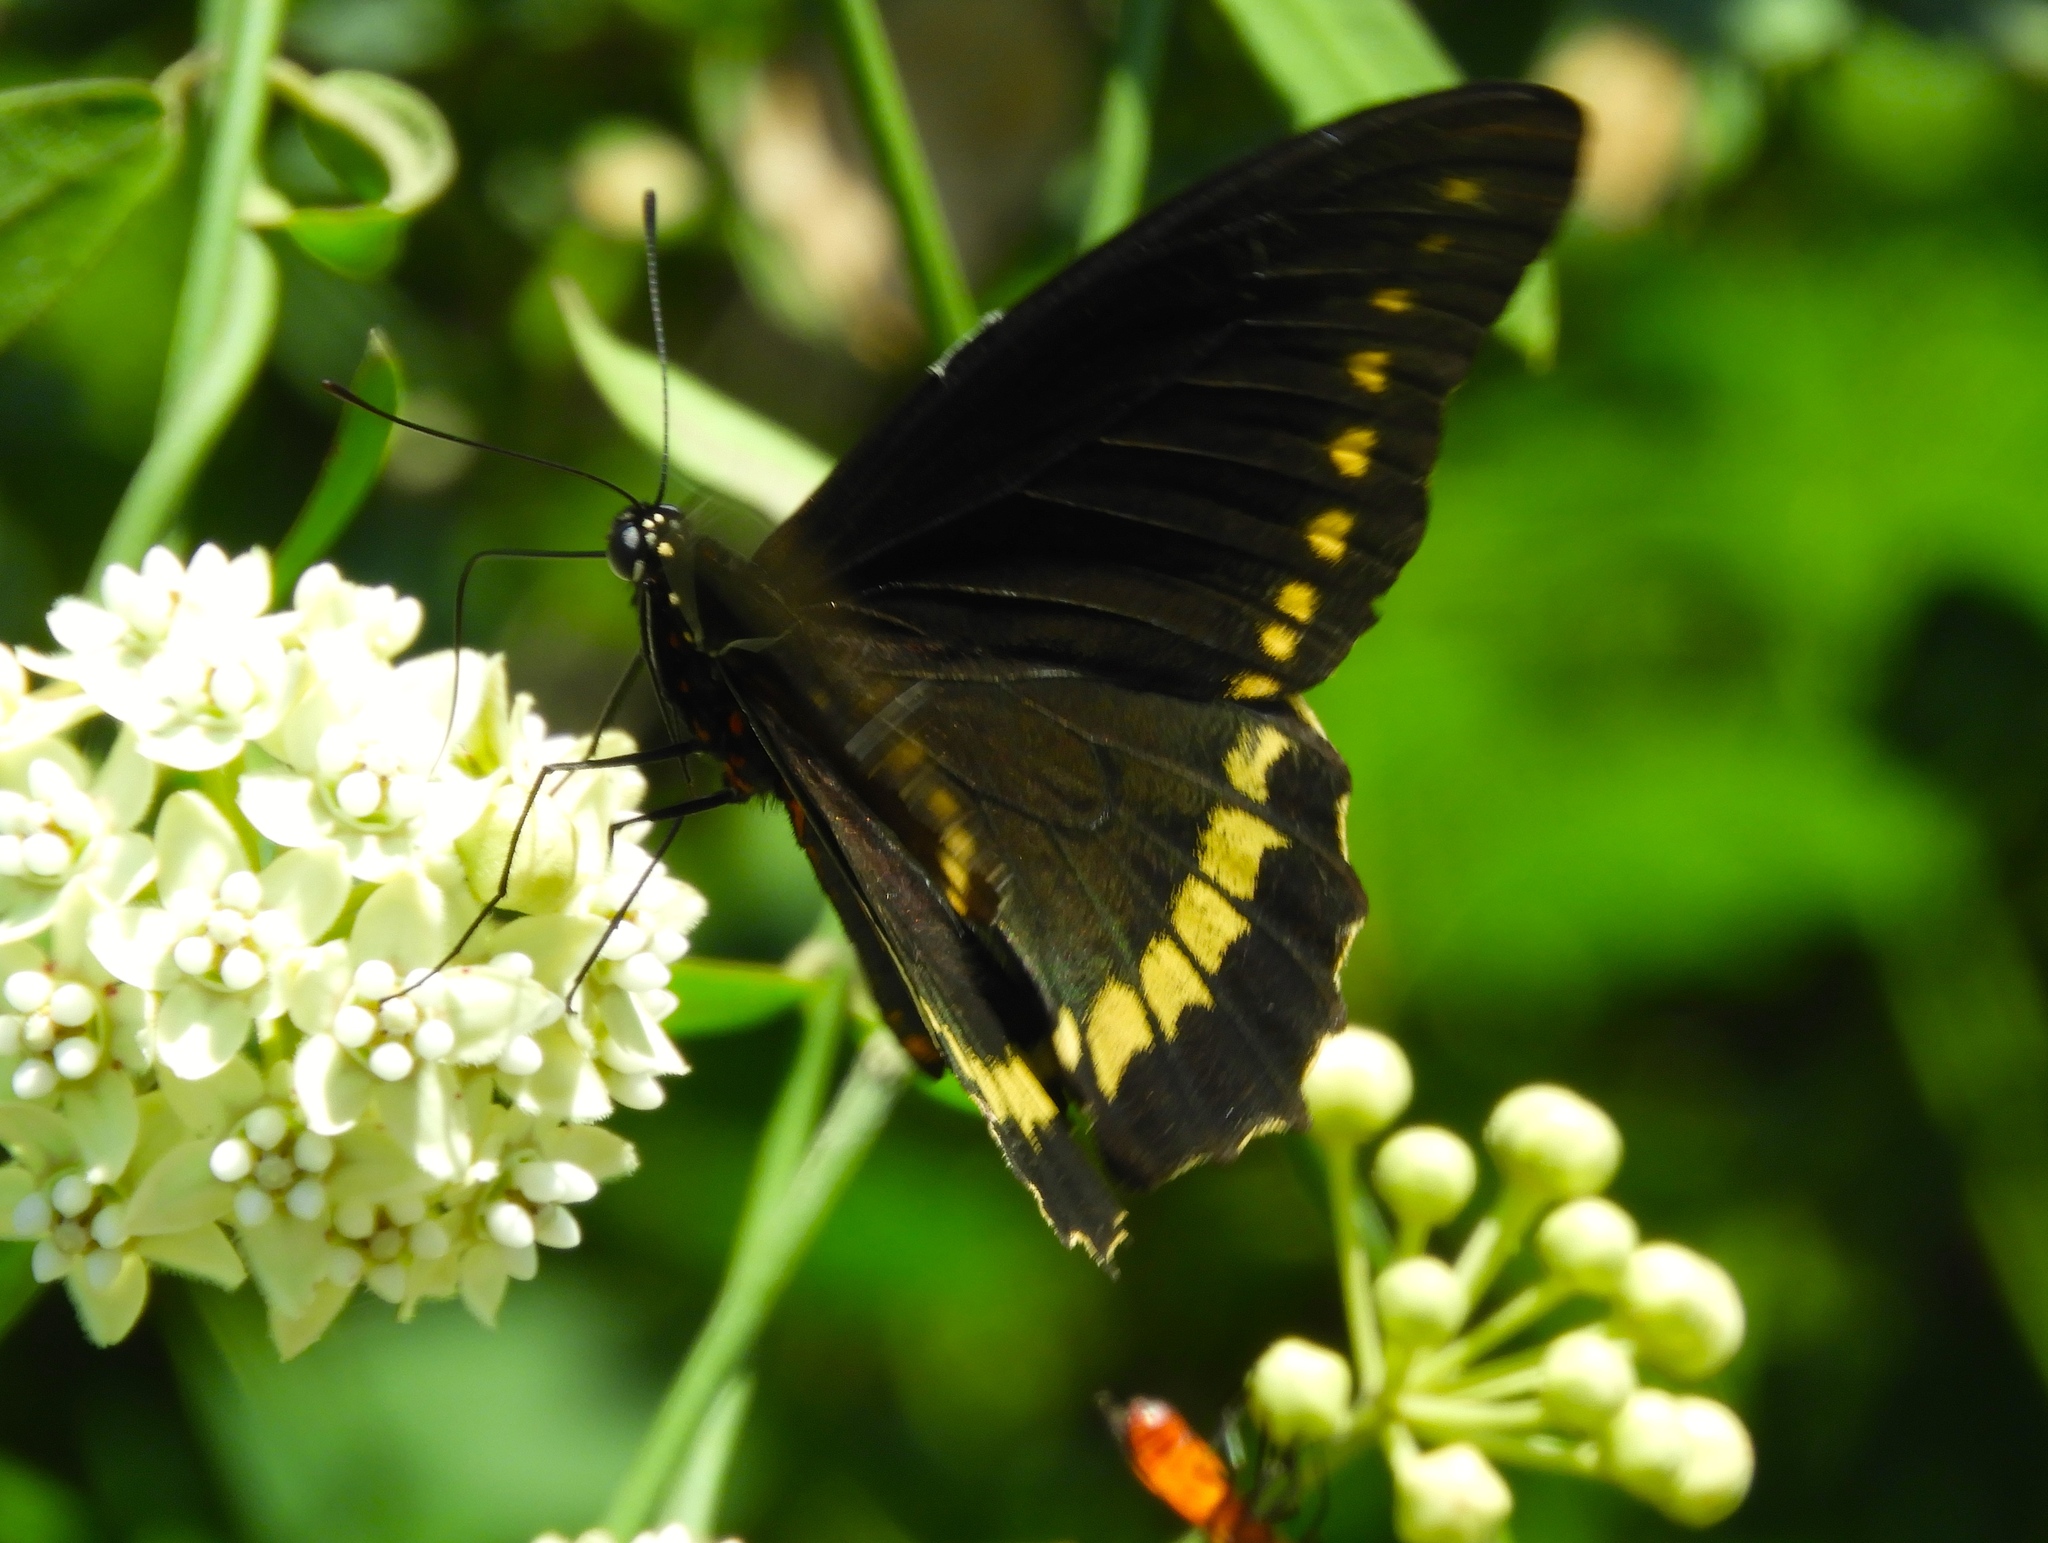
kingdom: Animalia
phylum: Arthropoda
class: Insecta
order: Lepidoptera
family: Papilionidae
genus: Battus
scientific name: Battus polydamas
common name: Polydamas swallowtail
